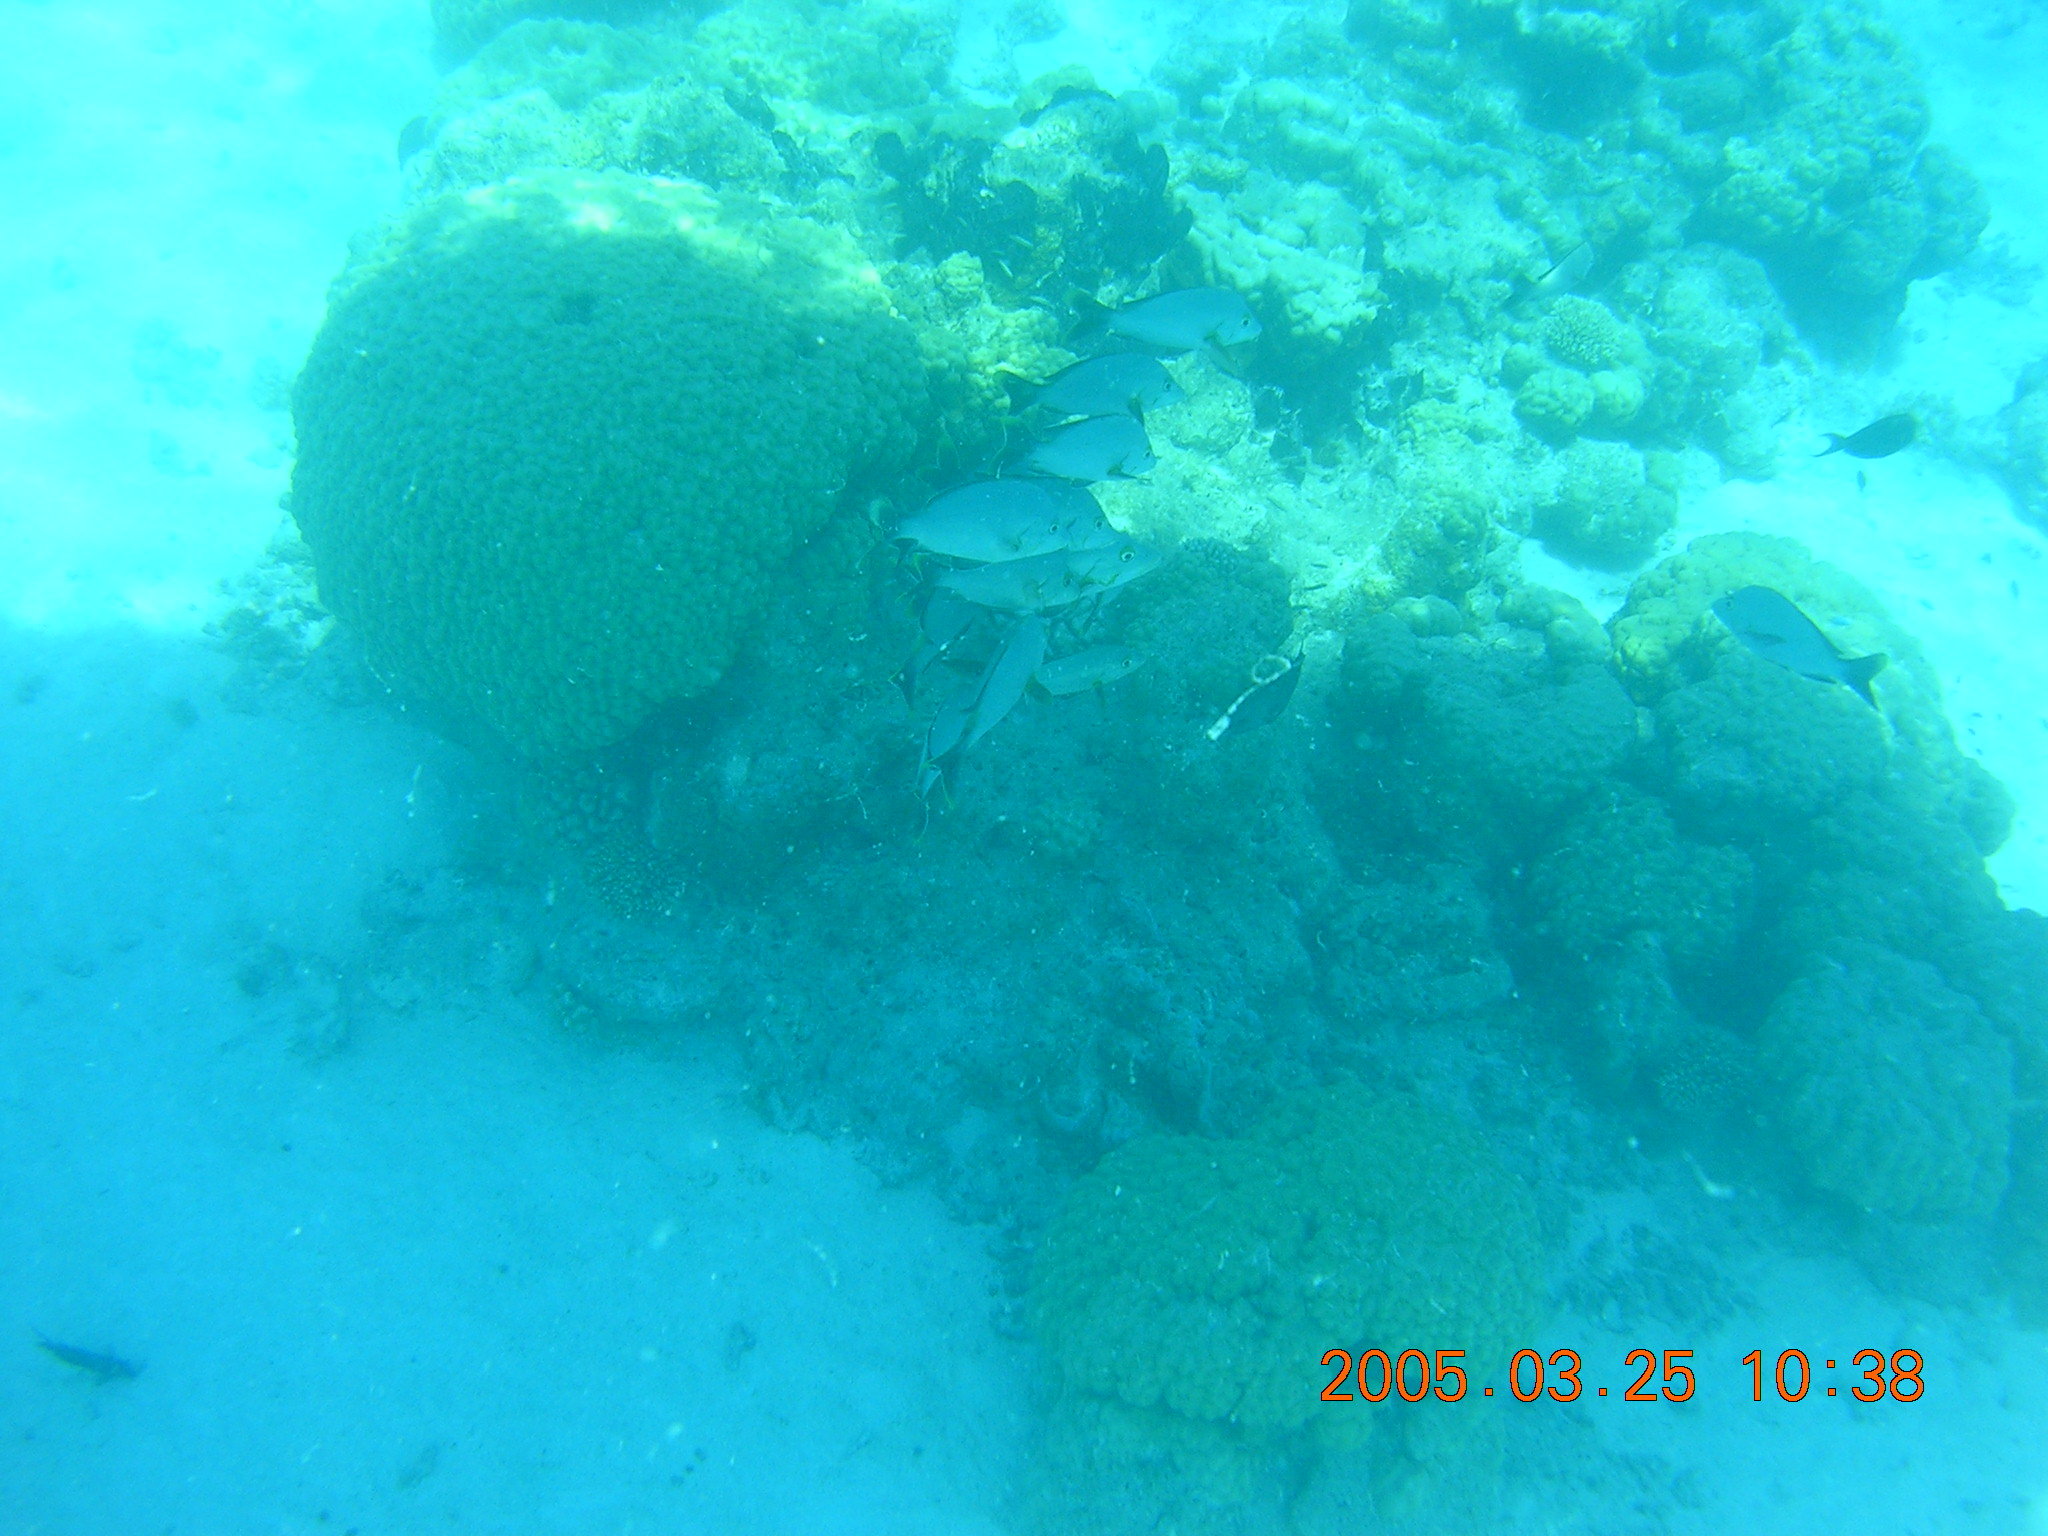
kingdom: Animalia
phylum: Chordata
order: Perciformes
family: Lutjanidae
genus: Lutjanus
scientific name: Lutjanus gibbus
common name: Humpback snapper
